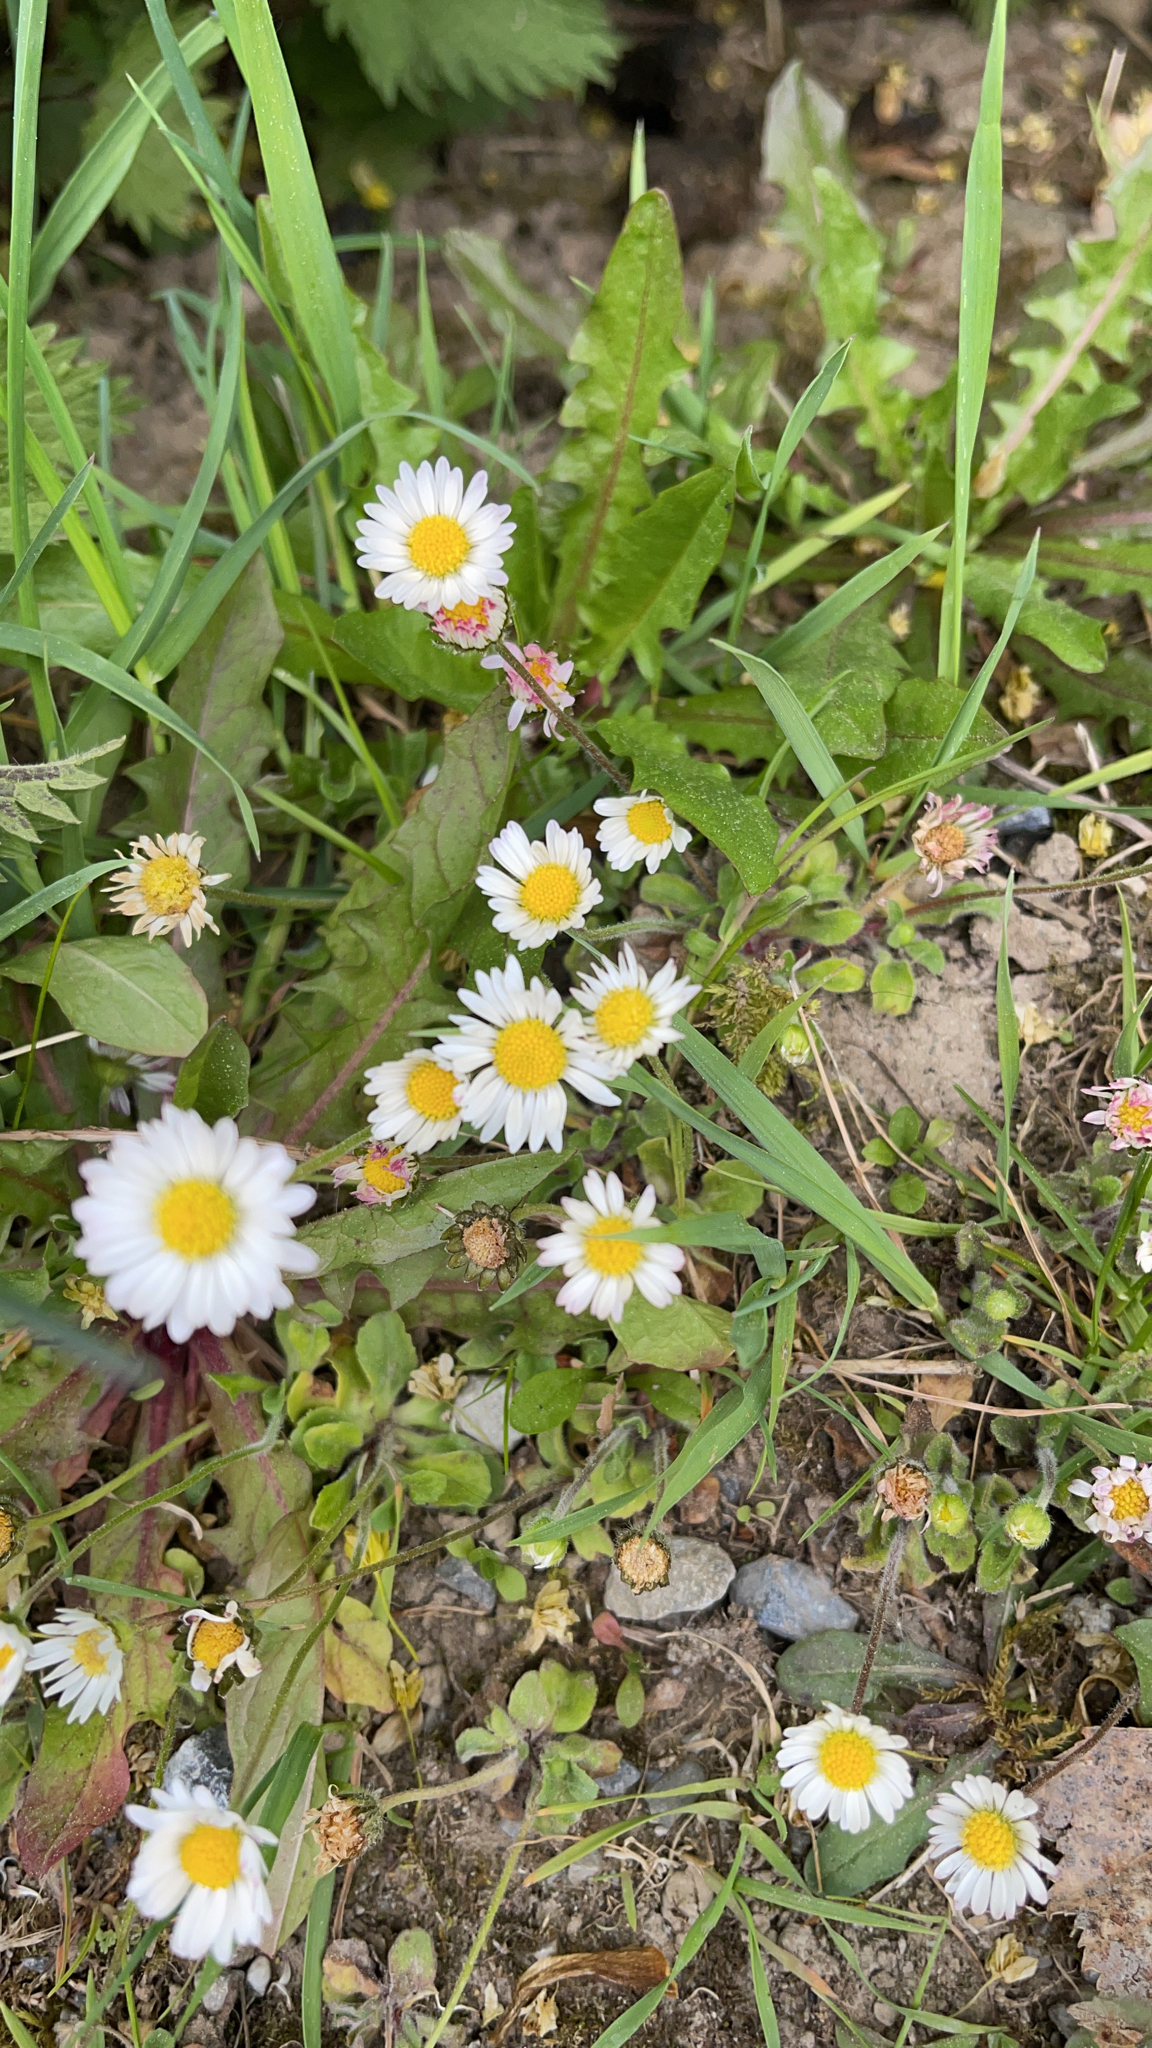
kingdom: Plantae
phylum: Tracheophyta
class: Magnoliopsida
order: Asterales
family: Asteraceae
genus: Bellis
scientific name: Bellis perennis
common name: Lawndaisy
